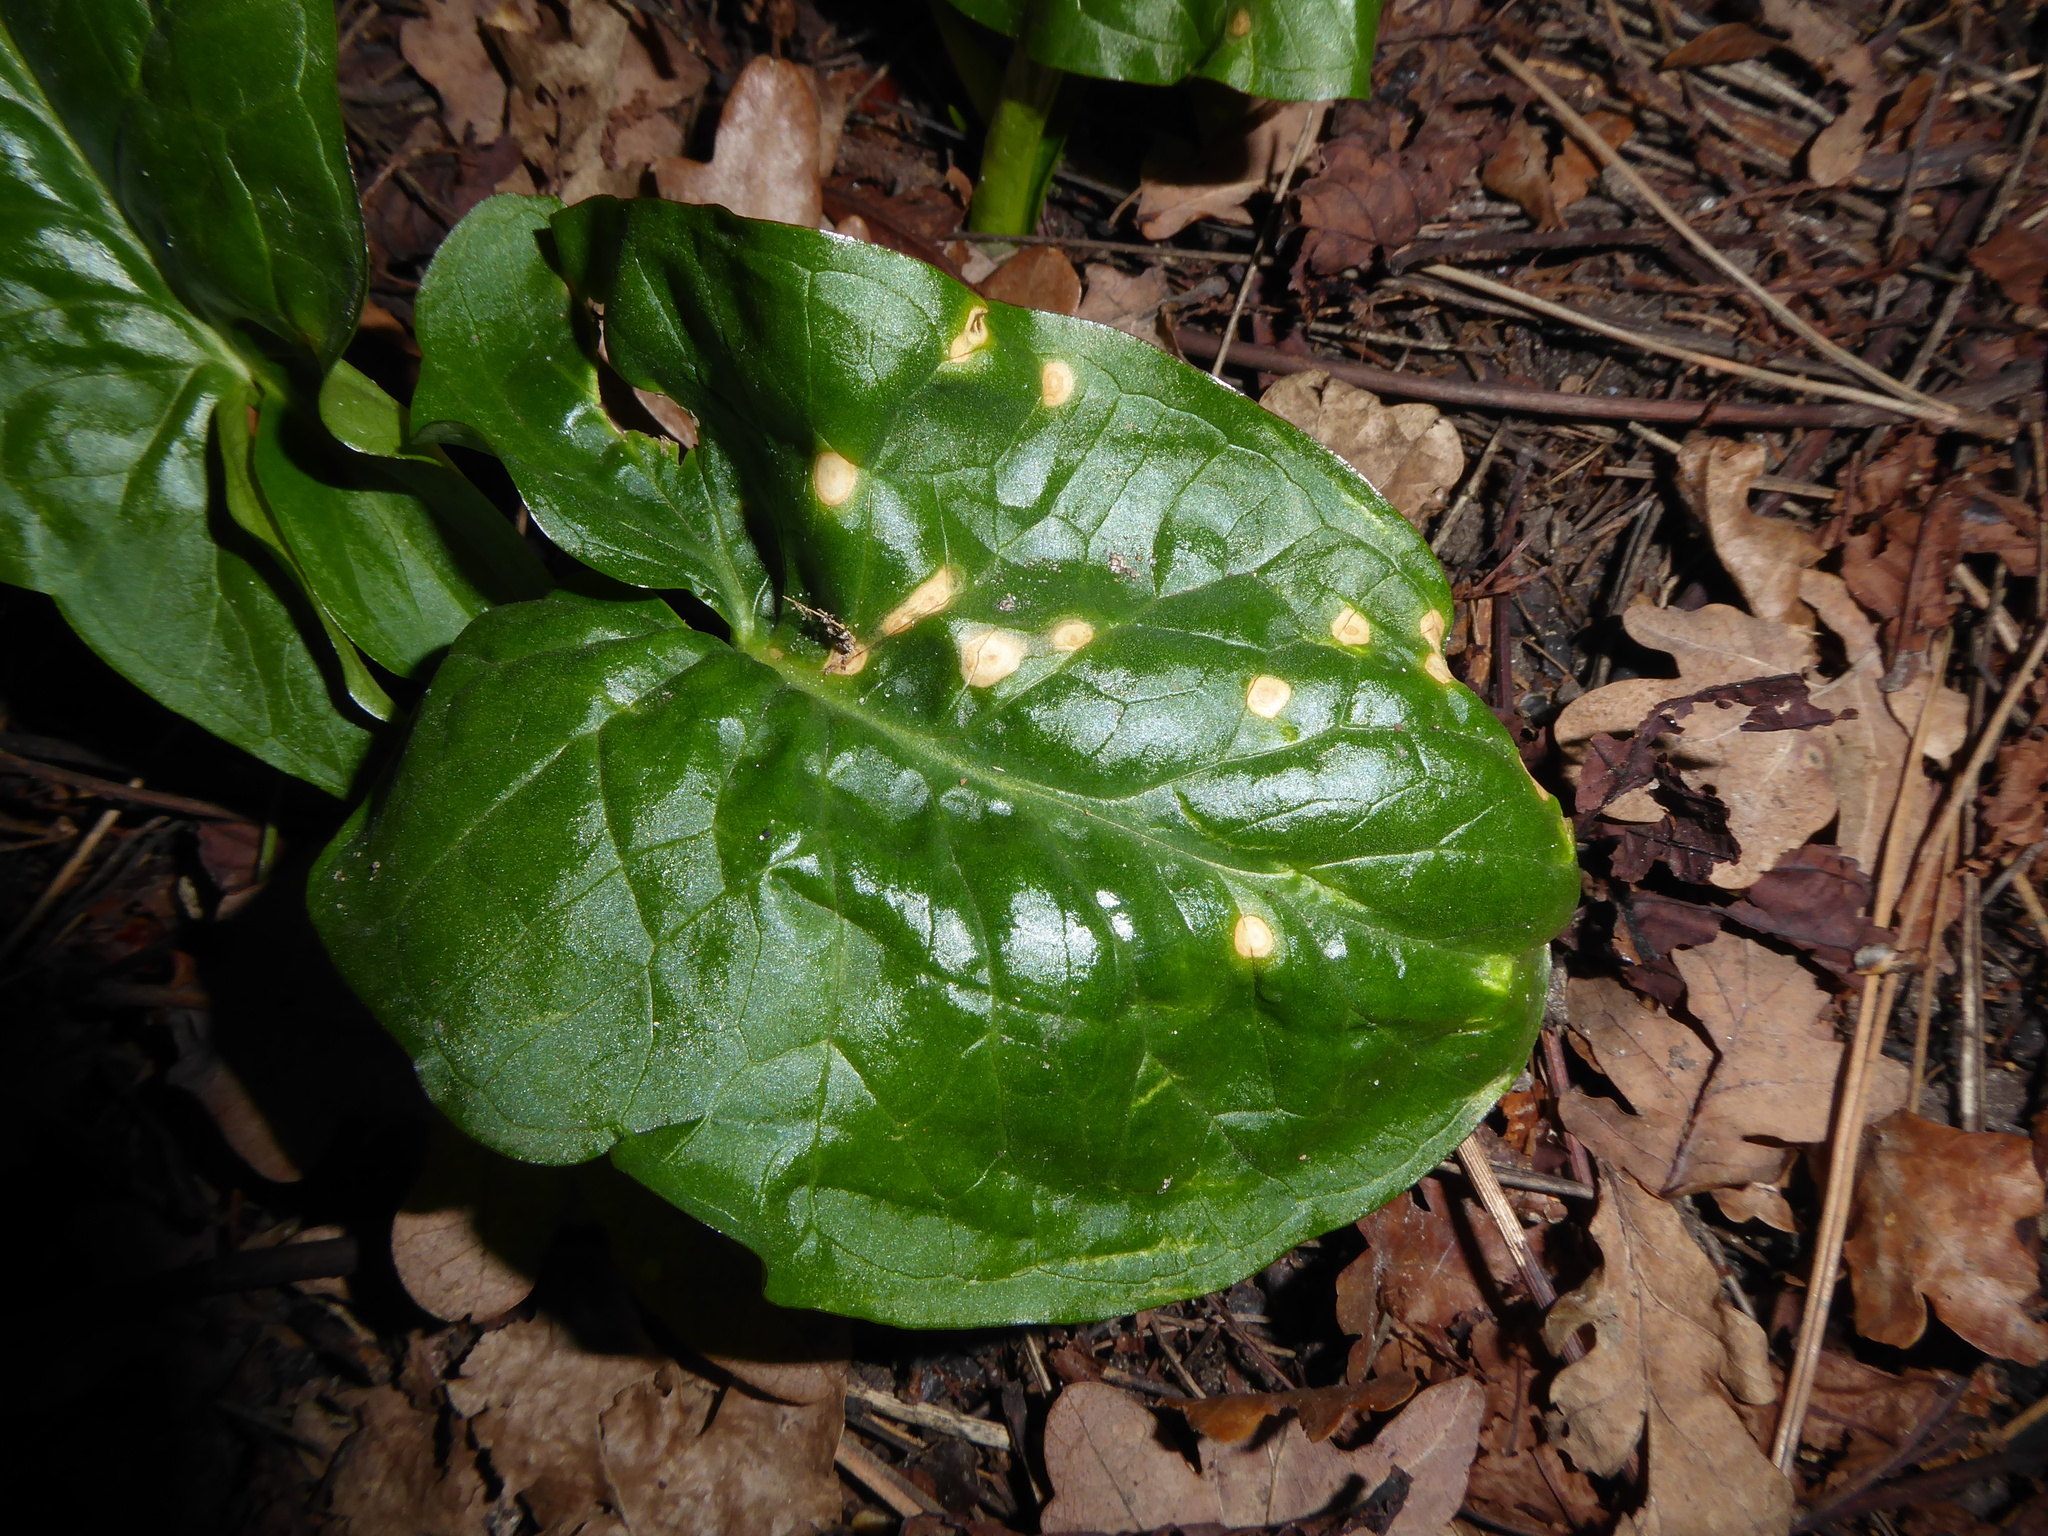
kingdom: Fungi
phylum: Ascomycota
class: Sordariomycetes
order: Glomerellales
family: Plectosphaerellaceae
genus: Spermosporina
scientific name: Spermosporina aricola
